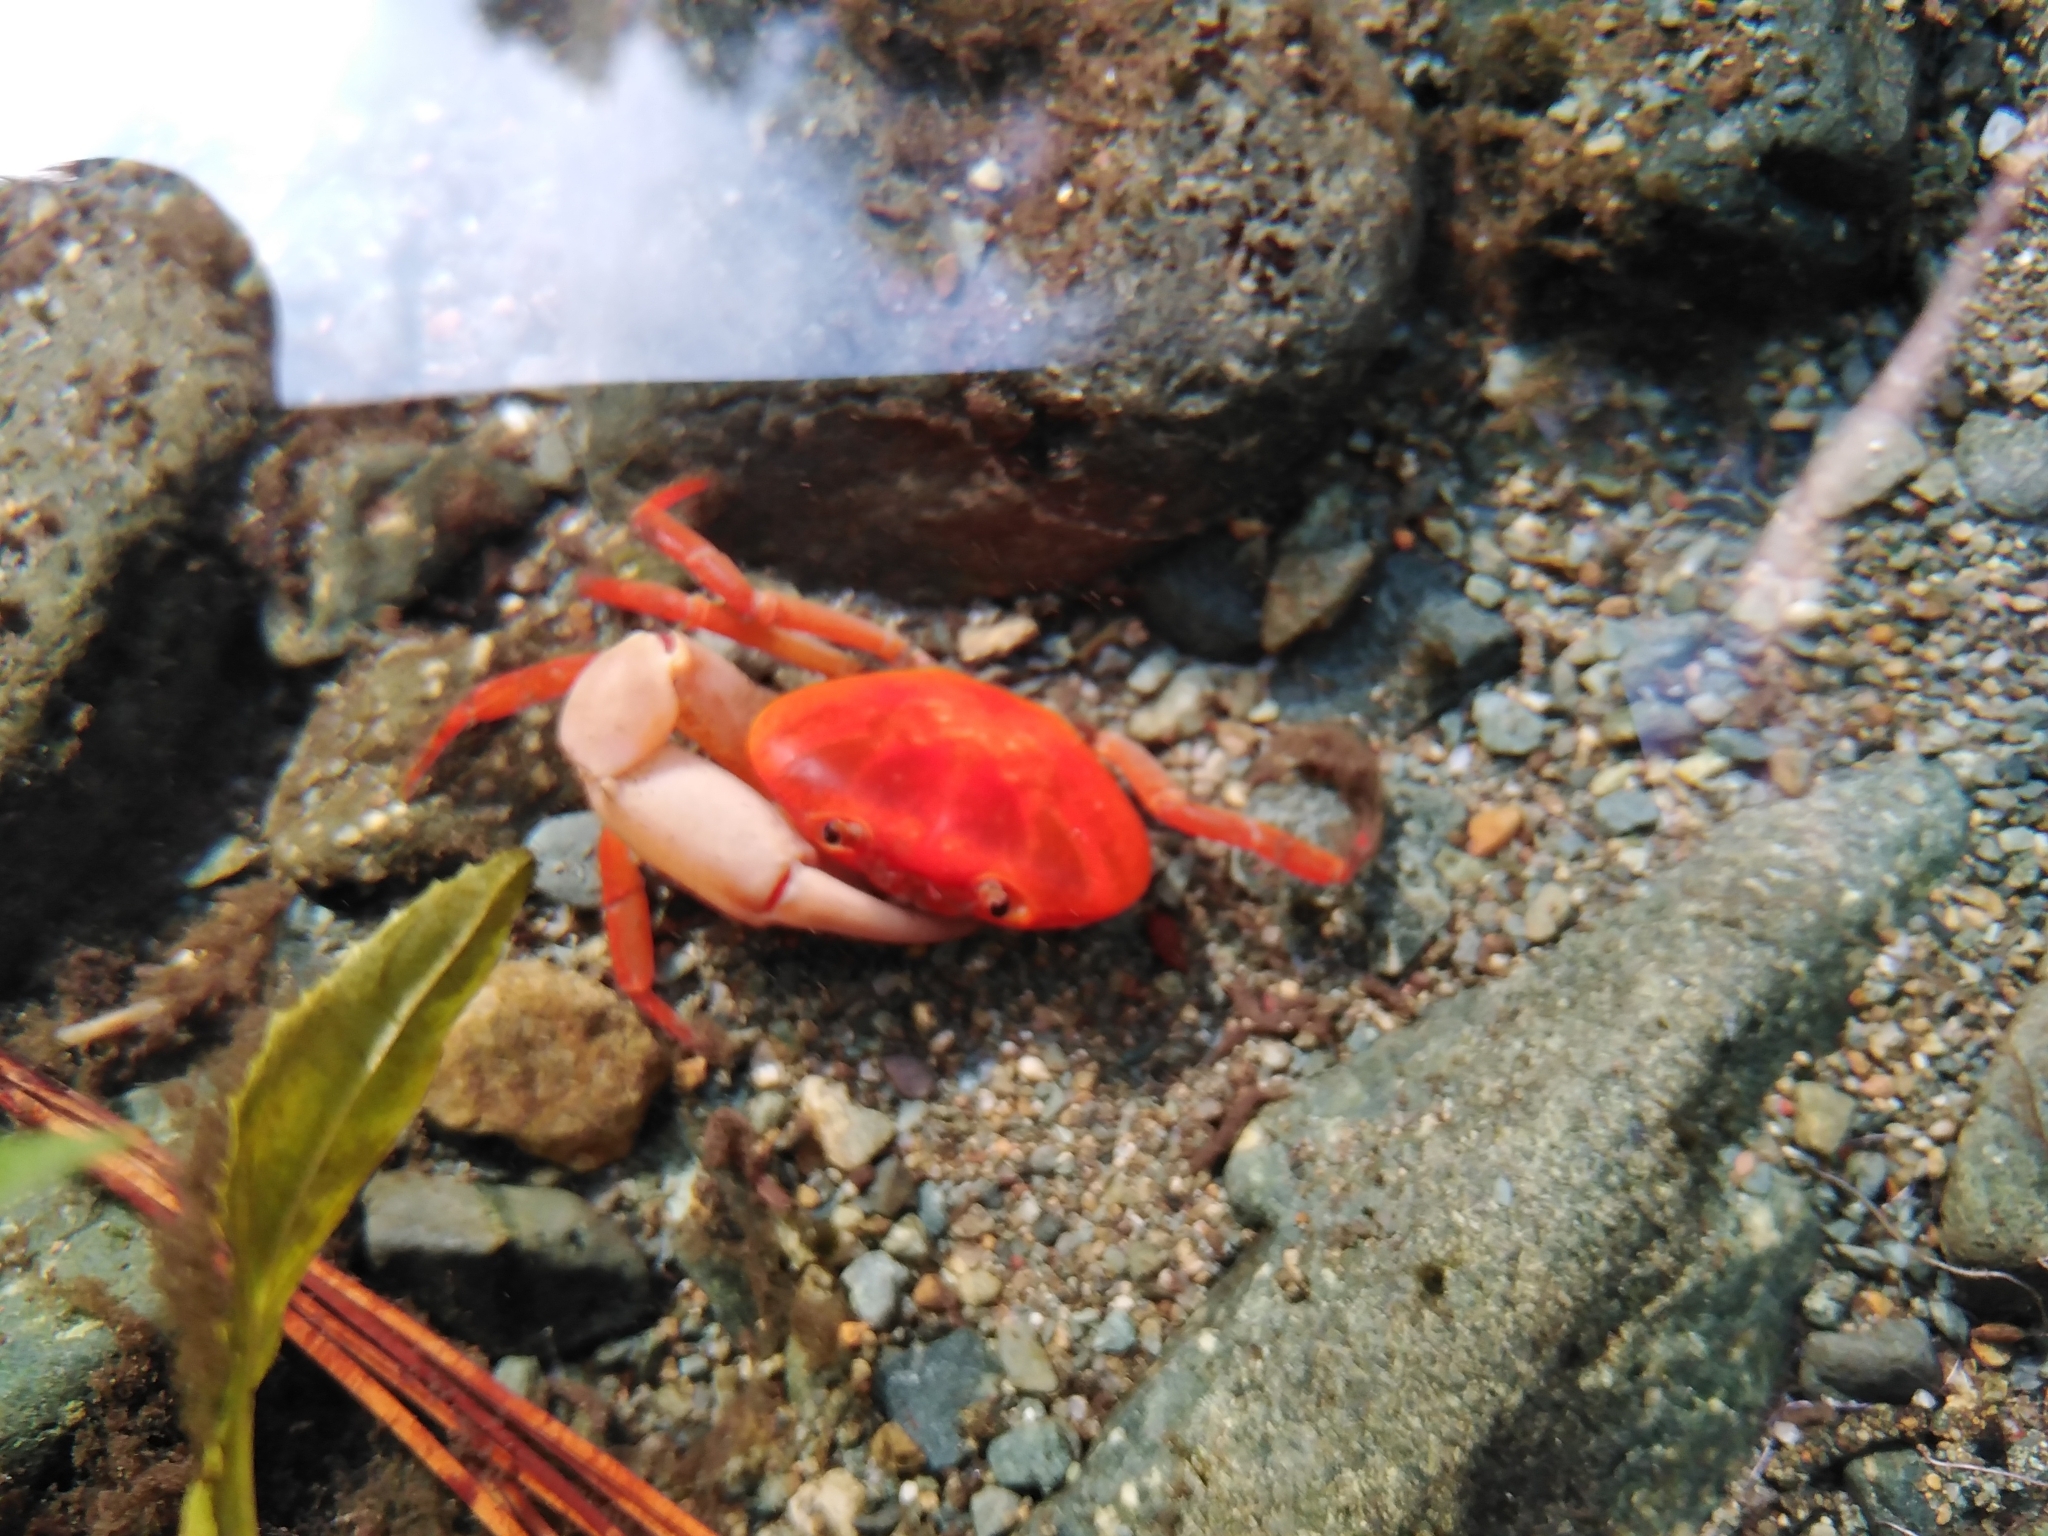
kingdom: Animalia
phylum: Arthropoda
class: Malacostraca
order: Decapoda
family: Epiloboceridae
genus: Epilobocera
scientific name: Epilobocera wetherbeei
